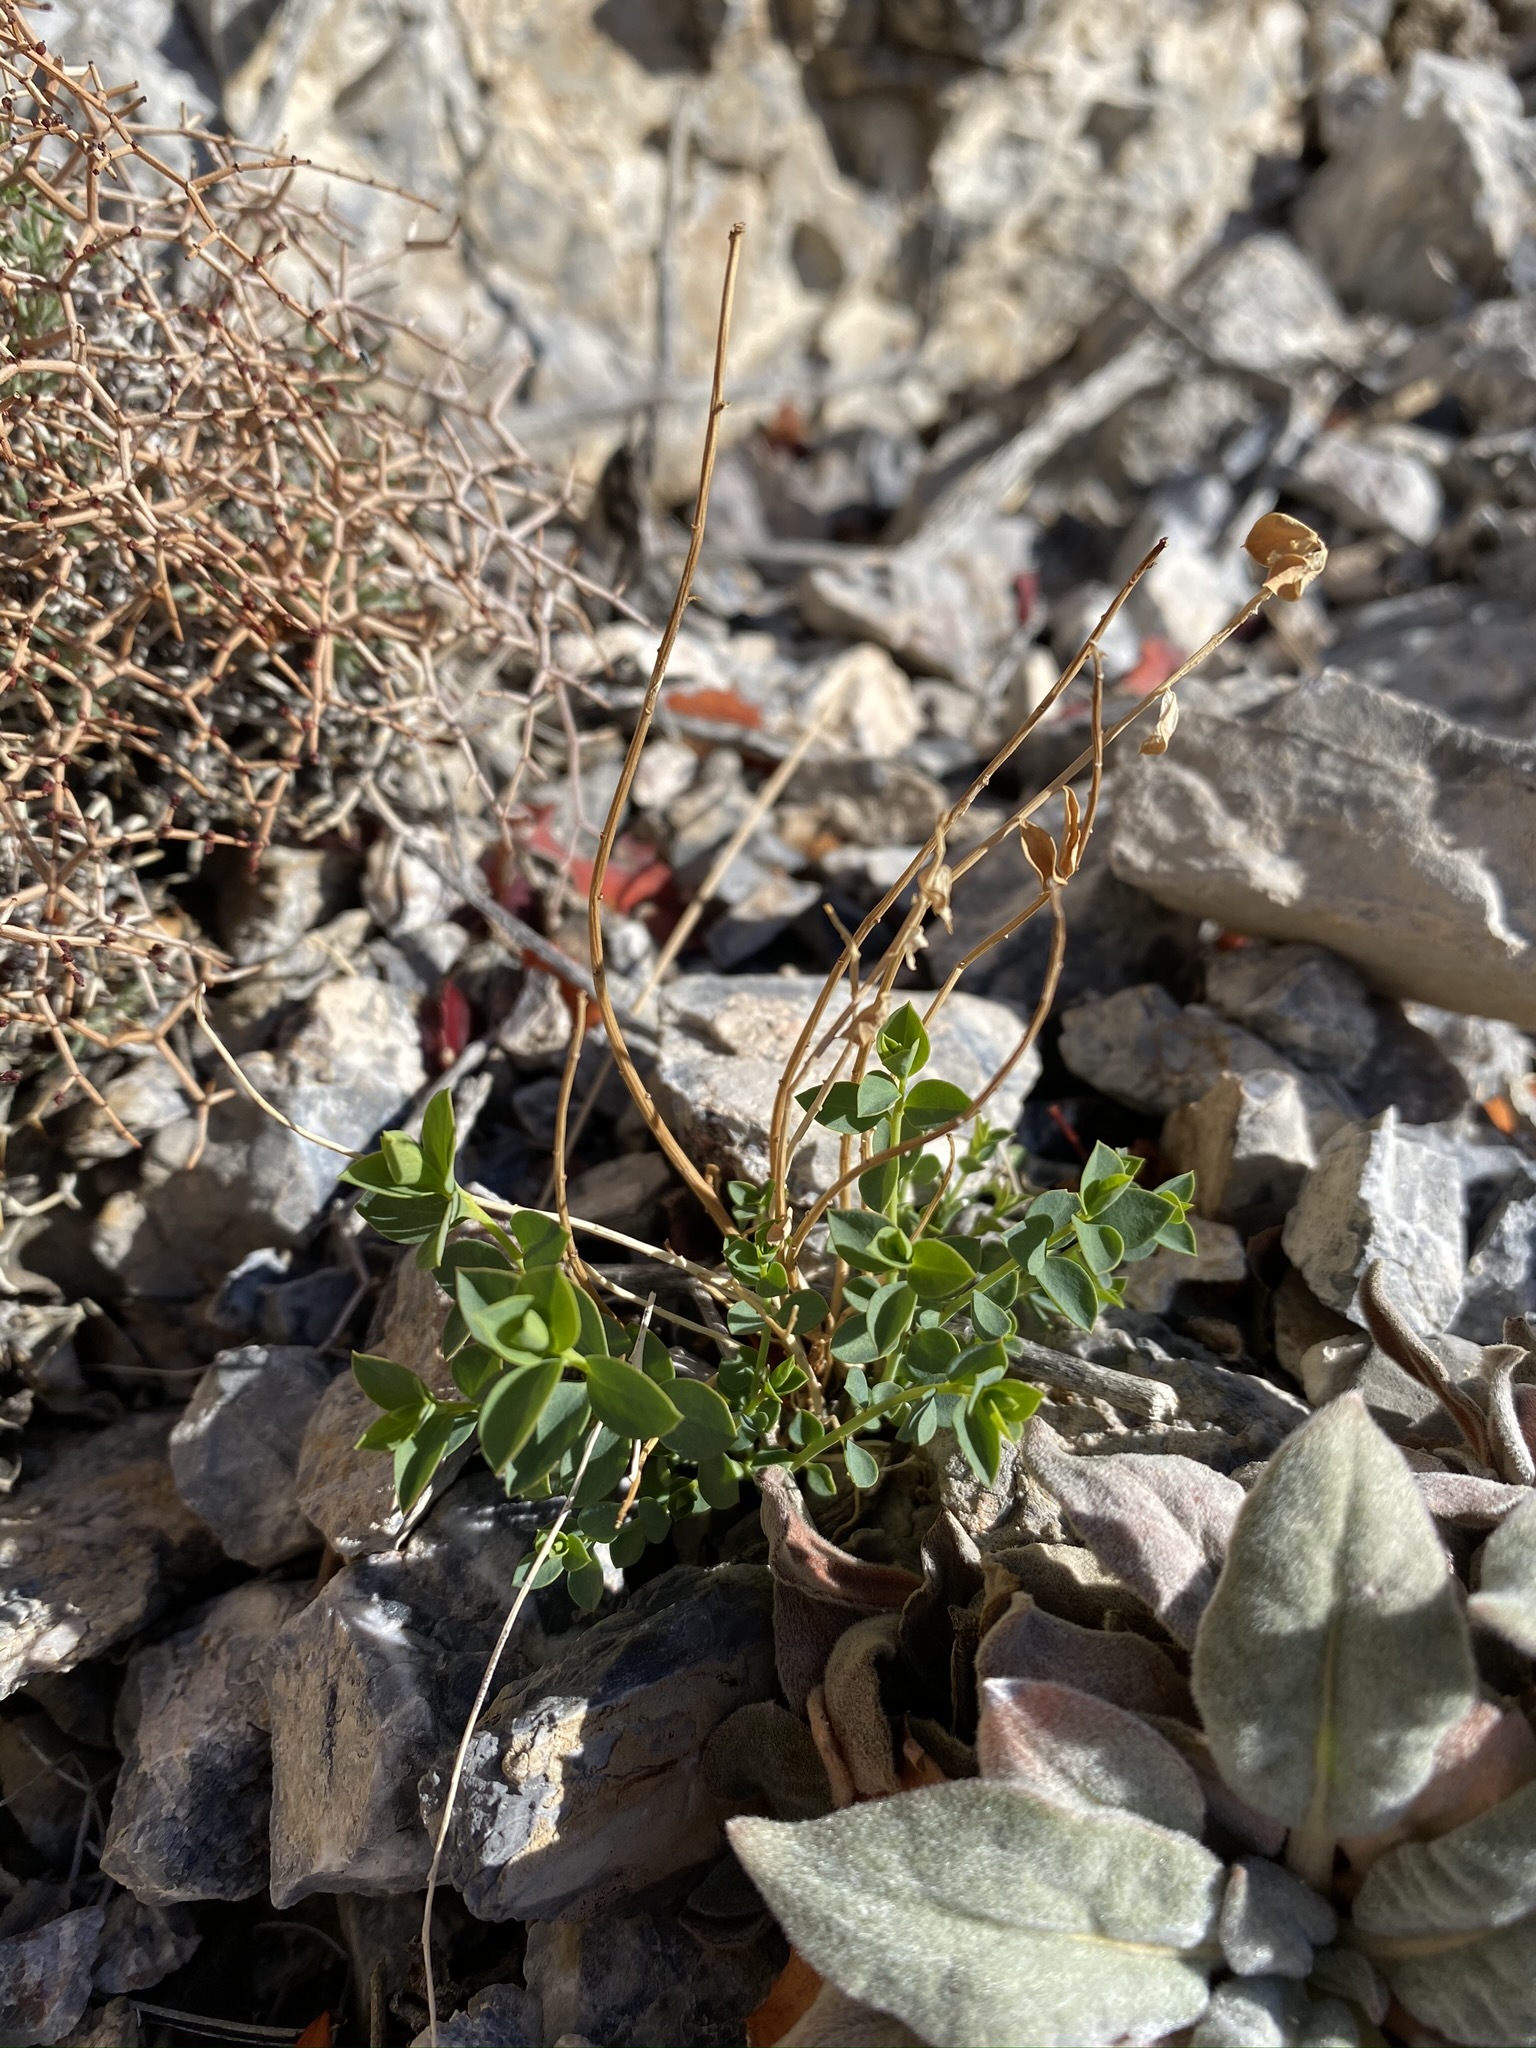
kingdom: Plantae
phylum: Tracheophyta
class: Magnoliopsida
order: Malpighiales
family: Euphorbiaceae
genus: Euphorbia
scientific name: Euphorbia schizoloba
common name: Mojave spurge
